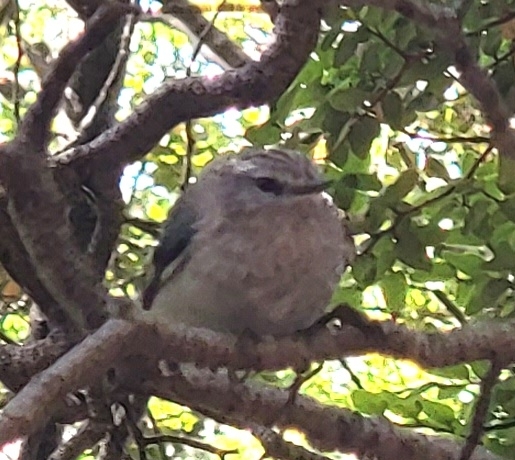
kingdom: Animalia
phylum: Chordata
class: Aves
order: Passeriformes
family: Acanthisittidae
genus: Acanthisitta
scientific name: Acanthisitta chloris
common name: Rifleman
